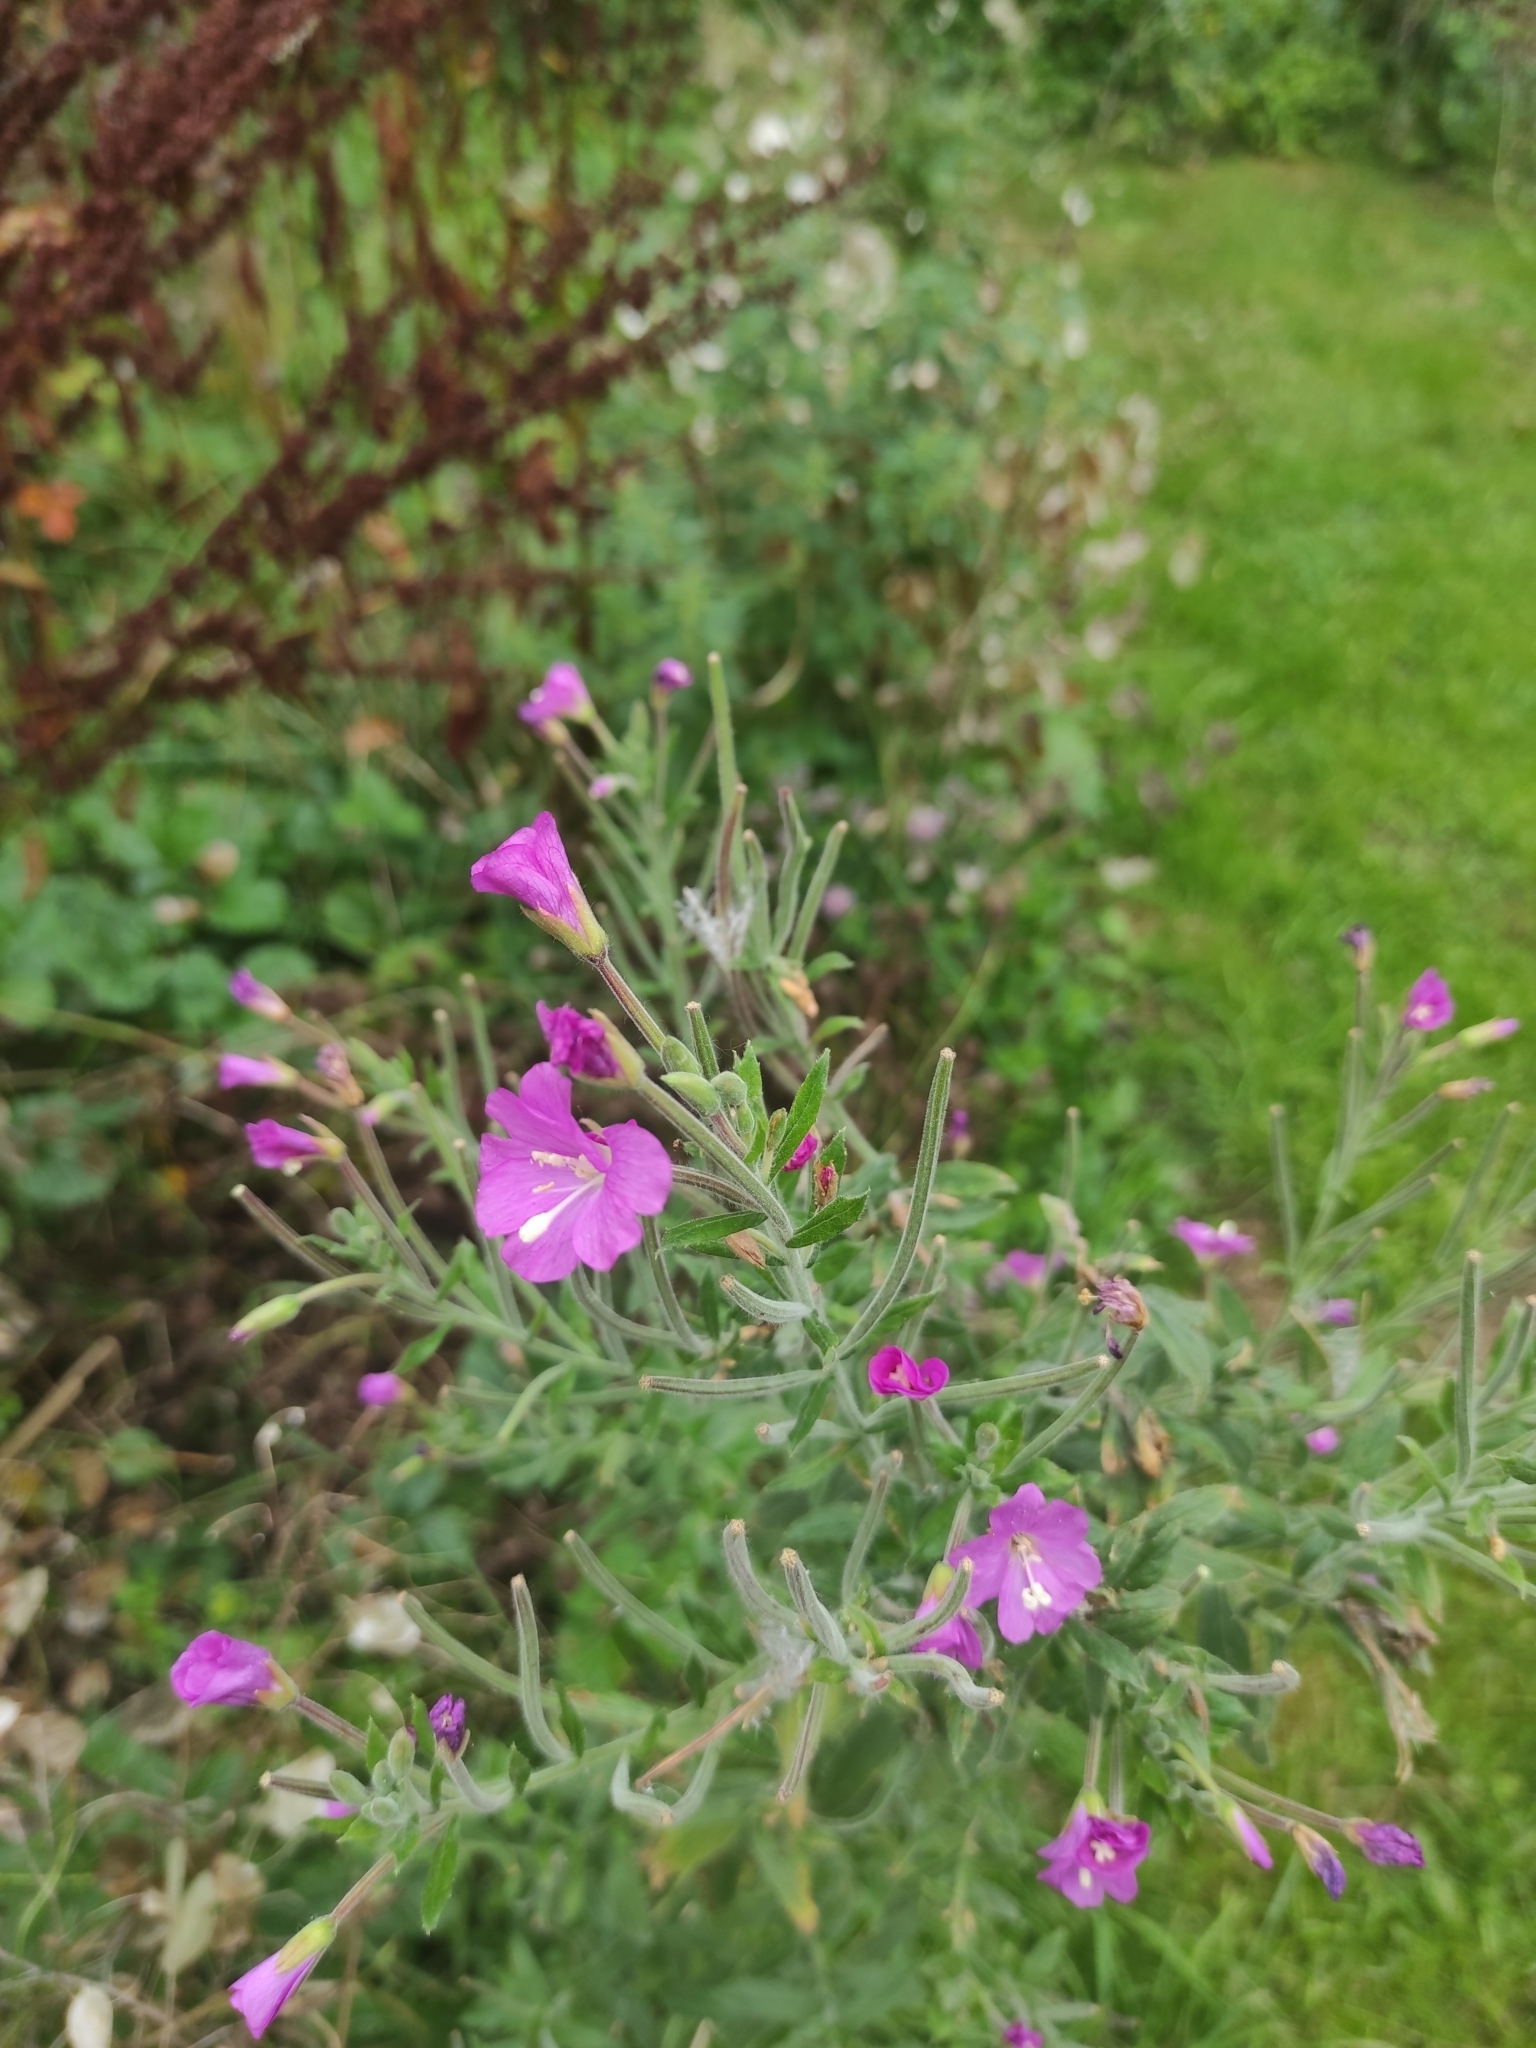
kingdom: Plantae
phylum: Tracheophyta
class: Magnoliopsida
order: Myrtales
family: Onagraceae
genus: Epilobium
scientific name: Epilobium hirsutum
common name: Great willowherb
